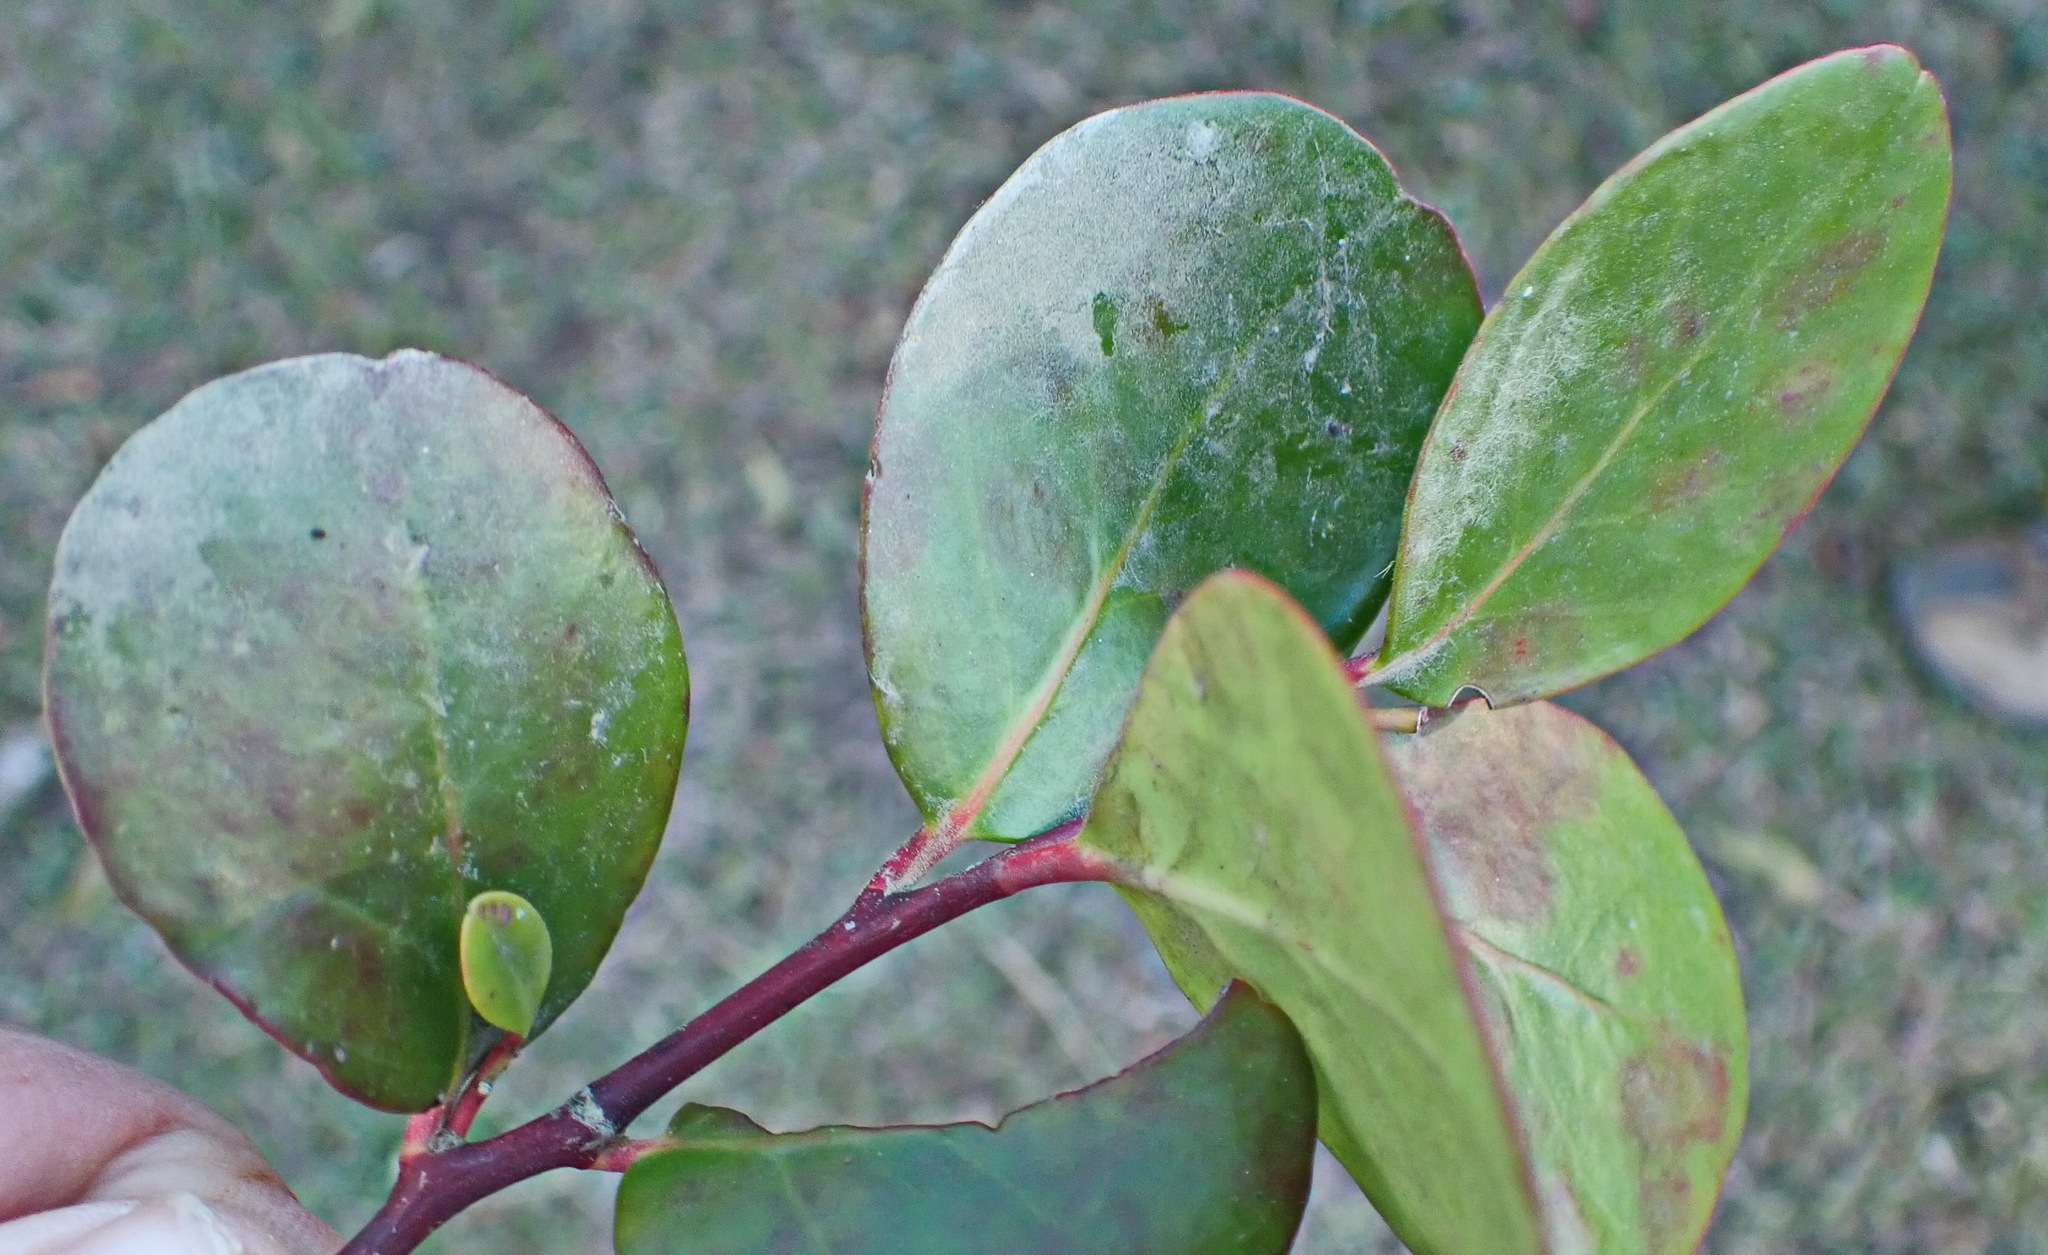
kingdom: Plantae
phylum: Tracheophyta
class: Magnoliopsida
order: Celastrales
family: Celastraceae
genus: Pterocelastrus
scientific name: Pterocelastrus tricuspidatus
